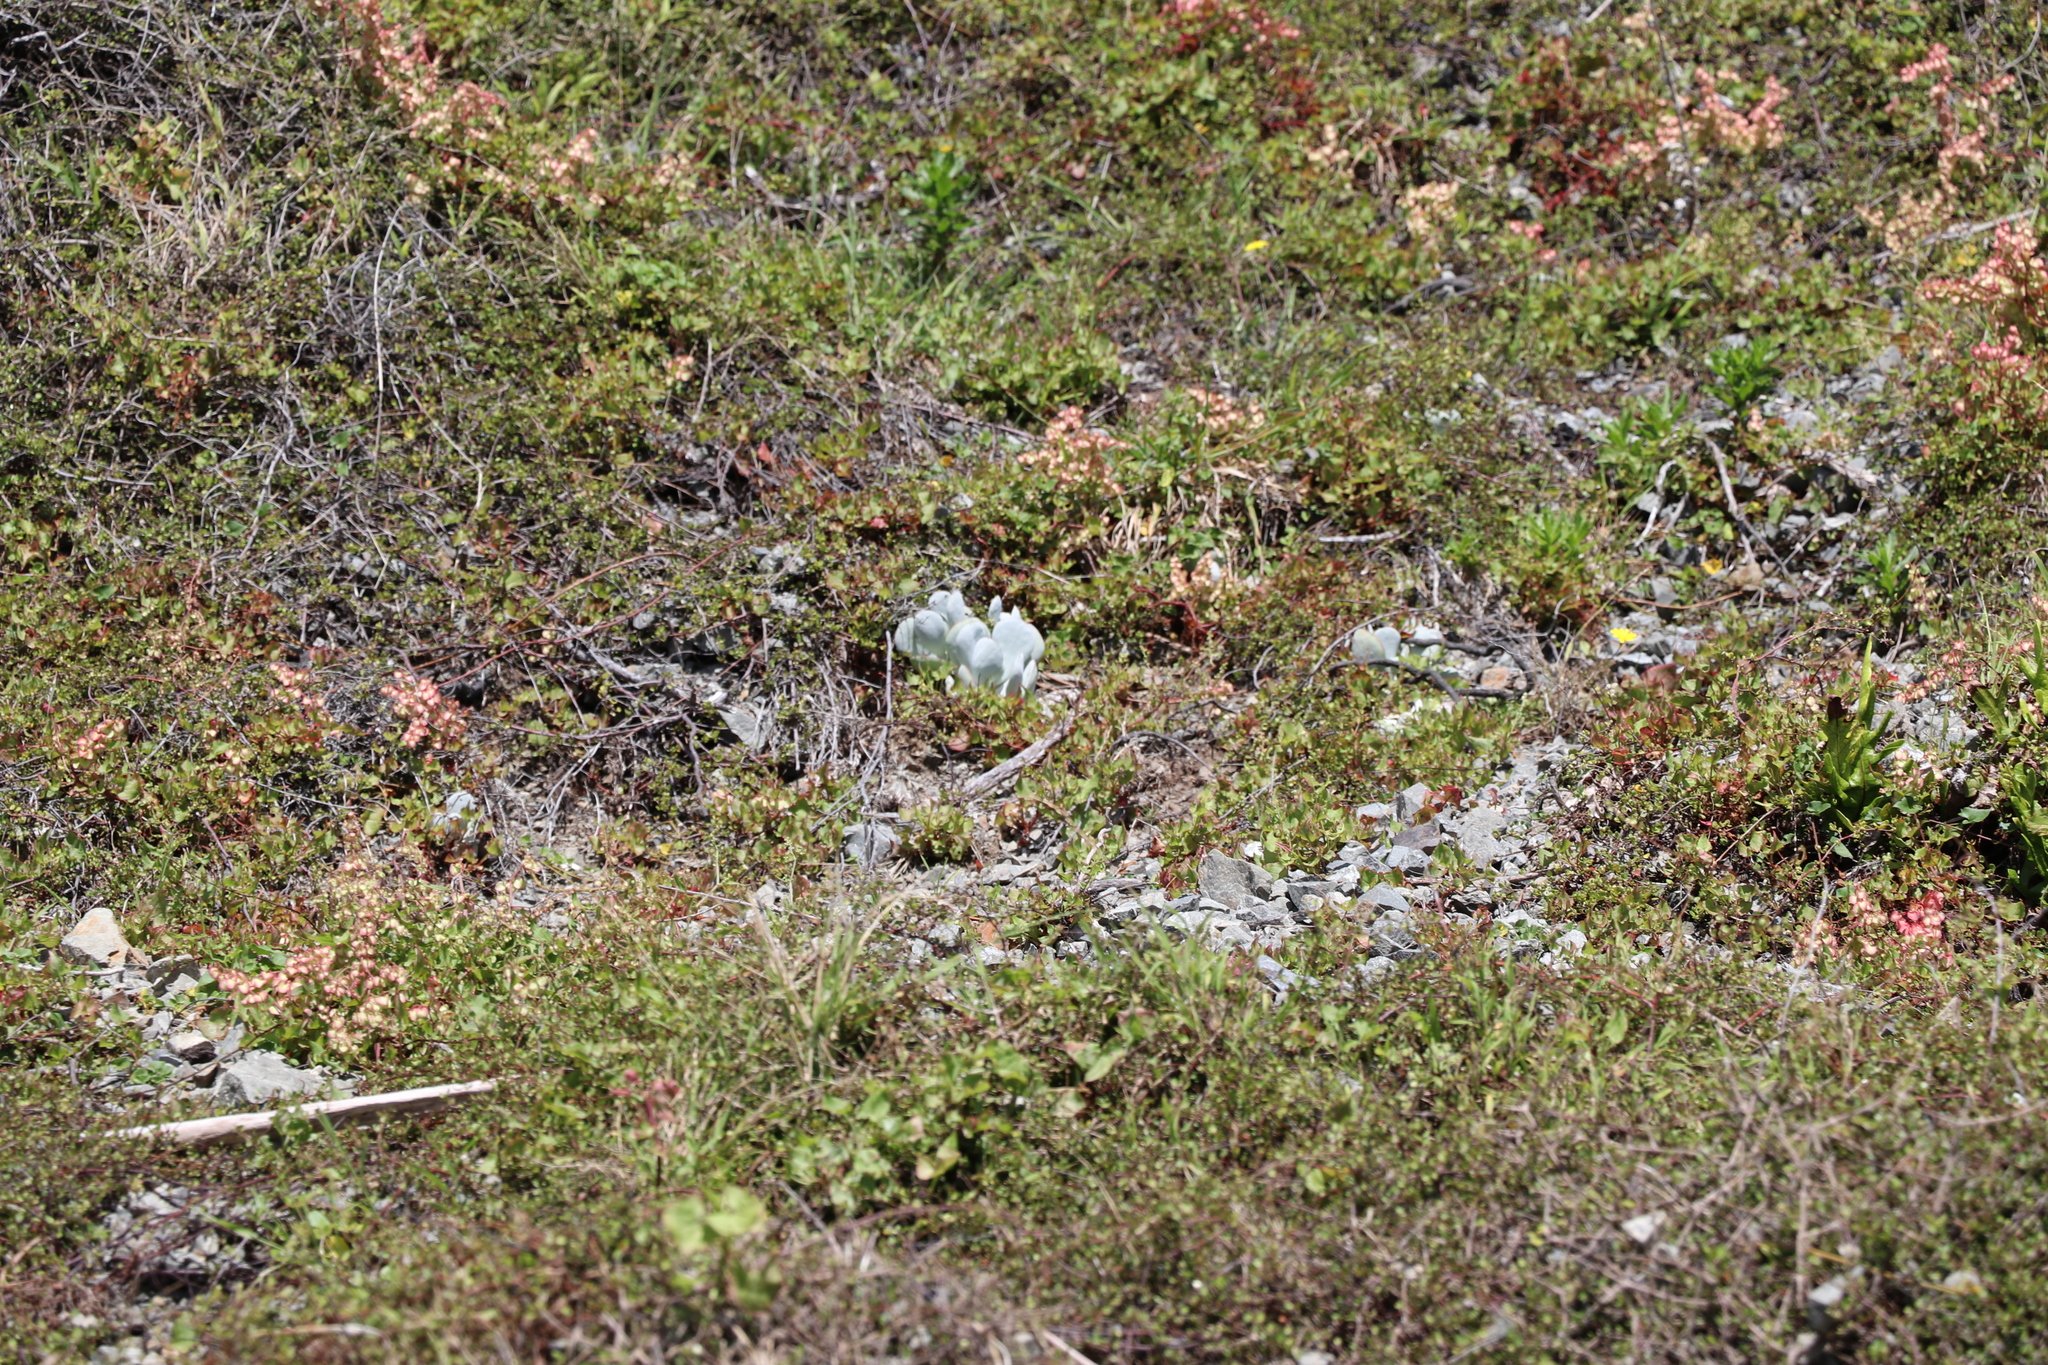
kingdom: Plantae
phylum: Tracheophyta
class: Magnoliopsida
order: Saxifragales
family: Crassulaceae
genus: Cotyledon
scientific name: Cotyledon orbiculata
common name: Pig's ear
